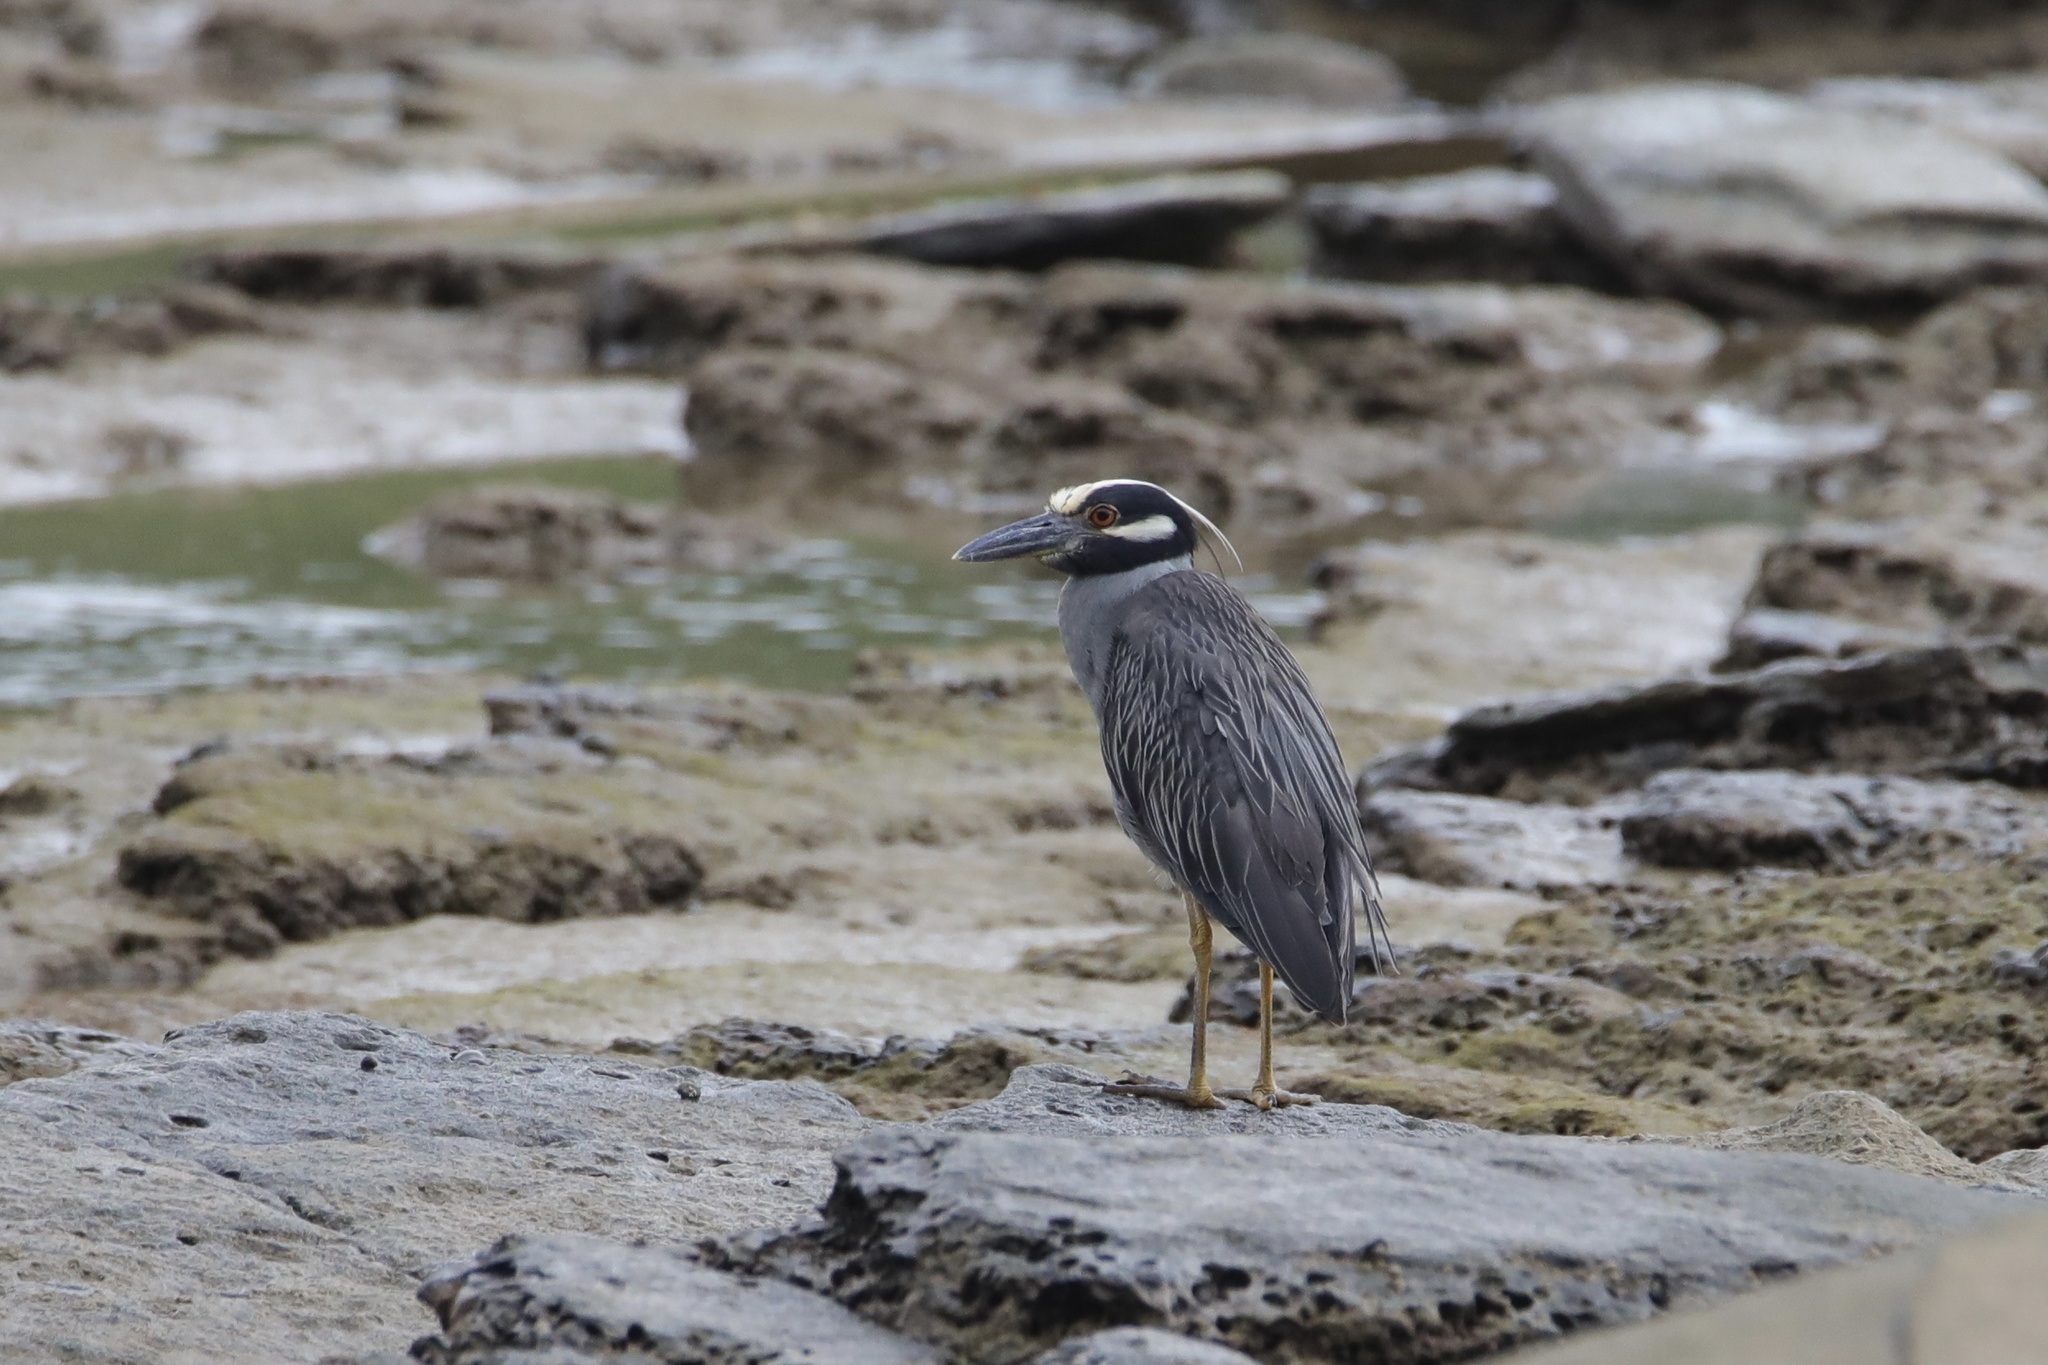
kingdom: Animalia
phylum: Chordata
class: Aves
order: Pelecaniformes
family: Ardeidae
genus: Nyctanassa
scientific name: Nyctanassa violacea
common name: Yellow-crowned night heron
